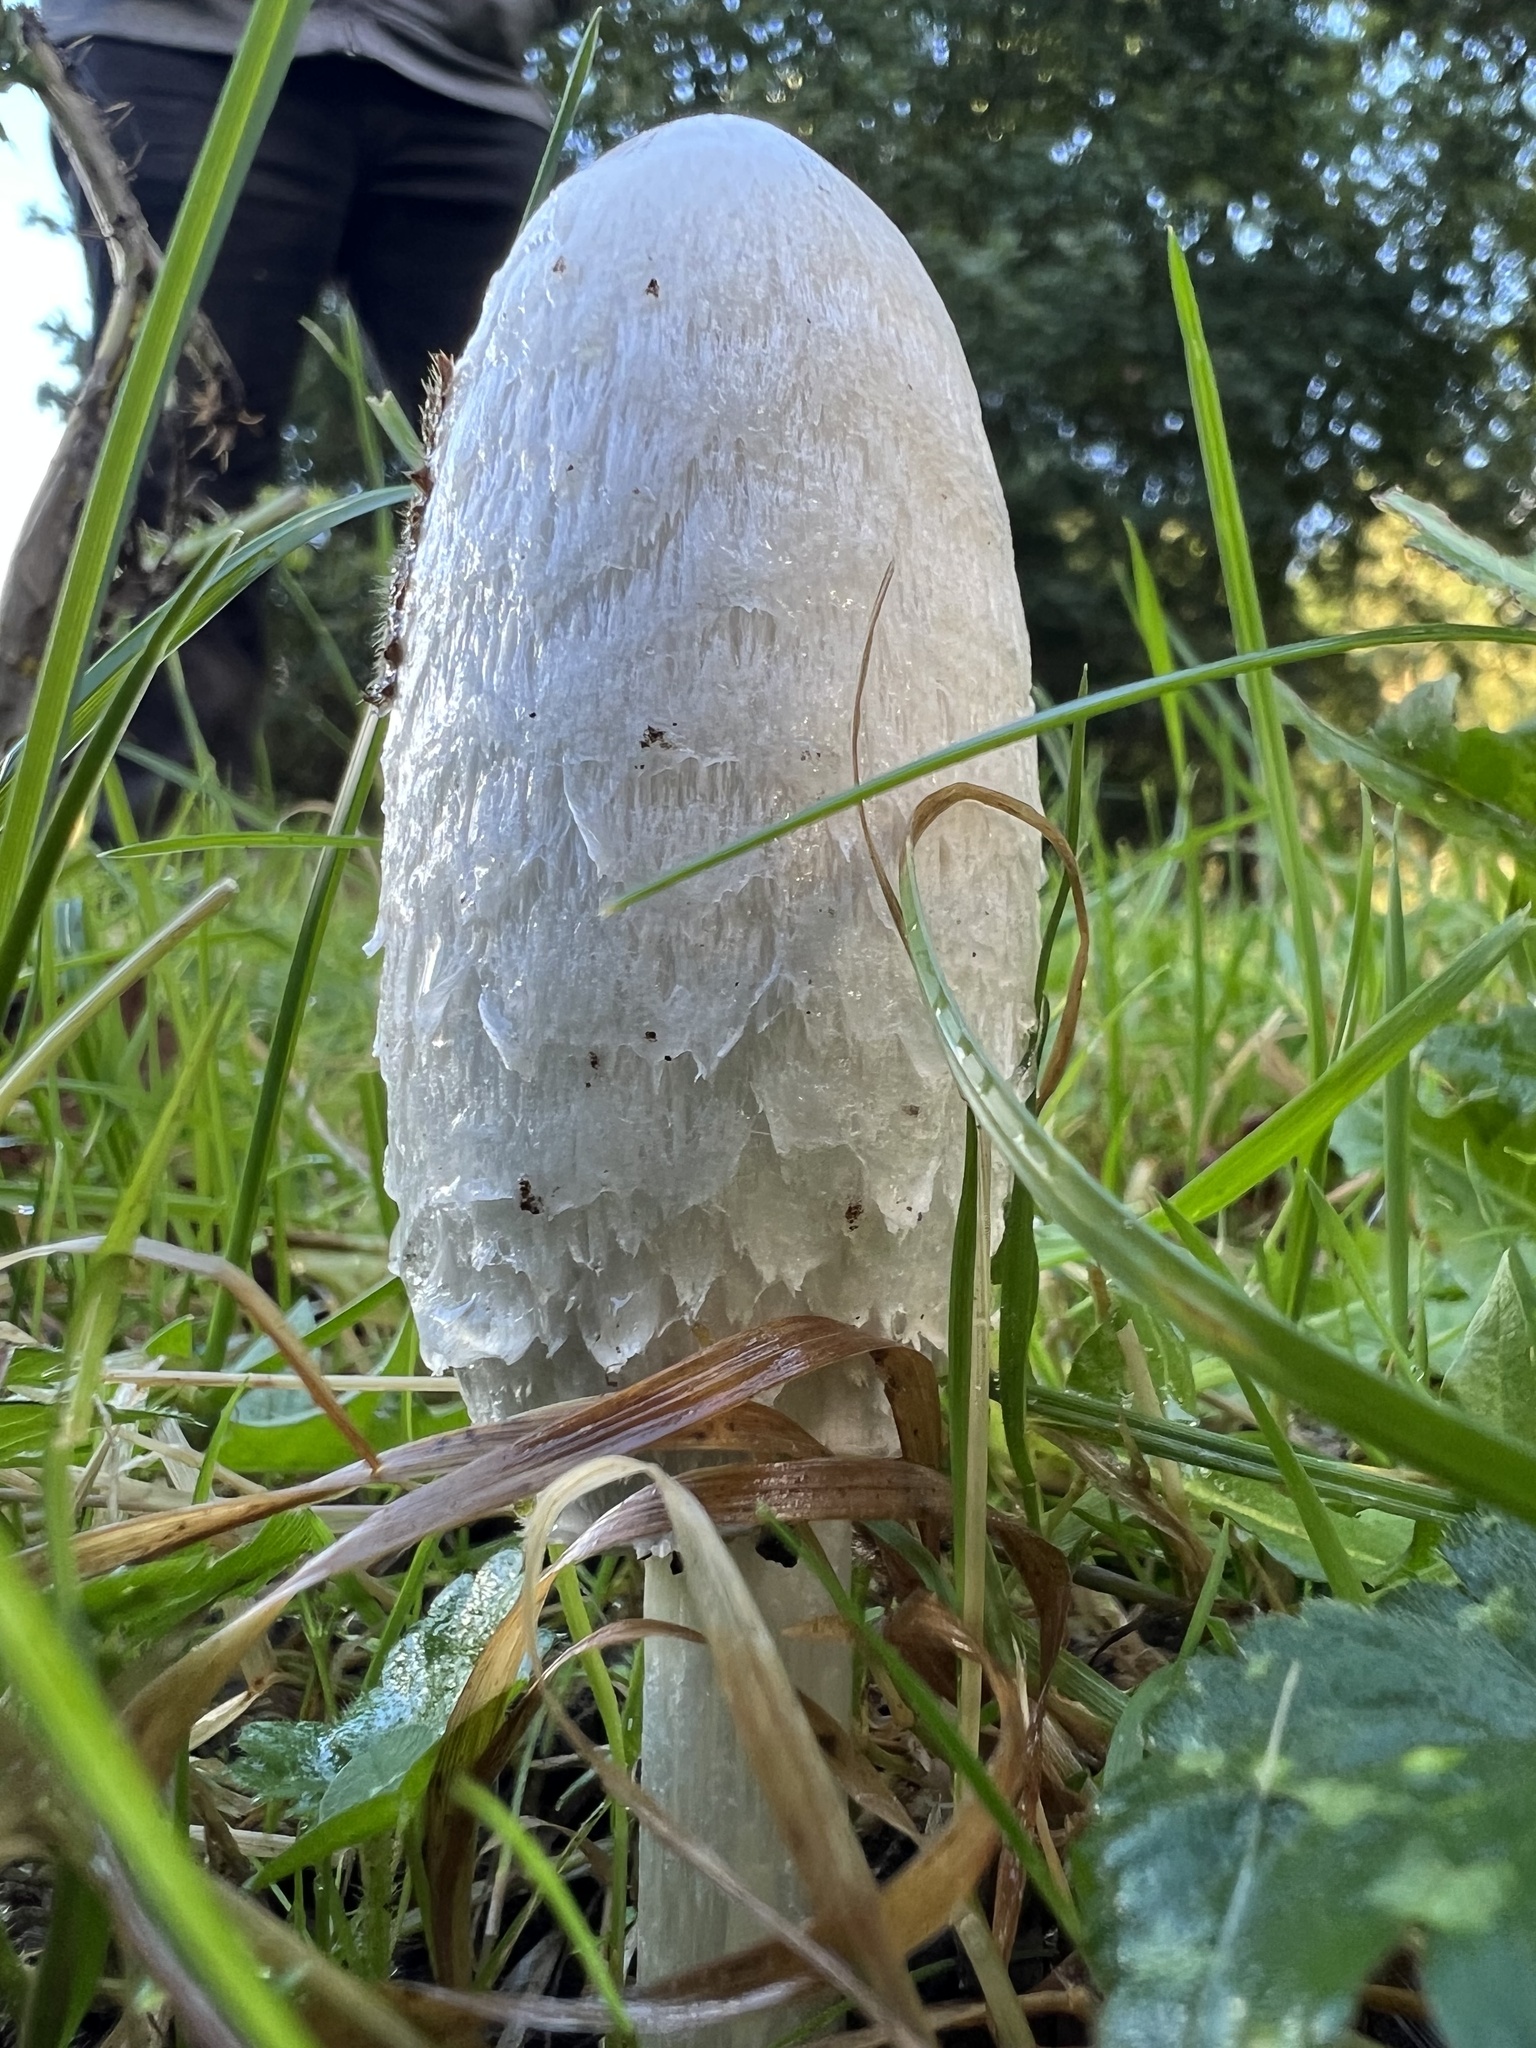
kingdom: Fungi
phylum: Basidiomycota
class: Agaricomycetes
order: Agaricales
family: Agaricaceae
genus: Coprinus
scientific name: Coprinus comatus
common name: Lawyer's wig
